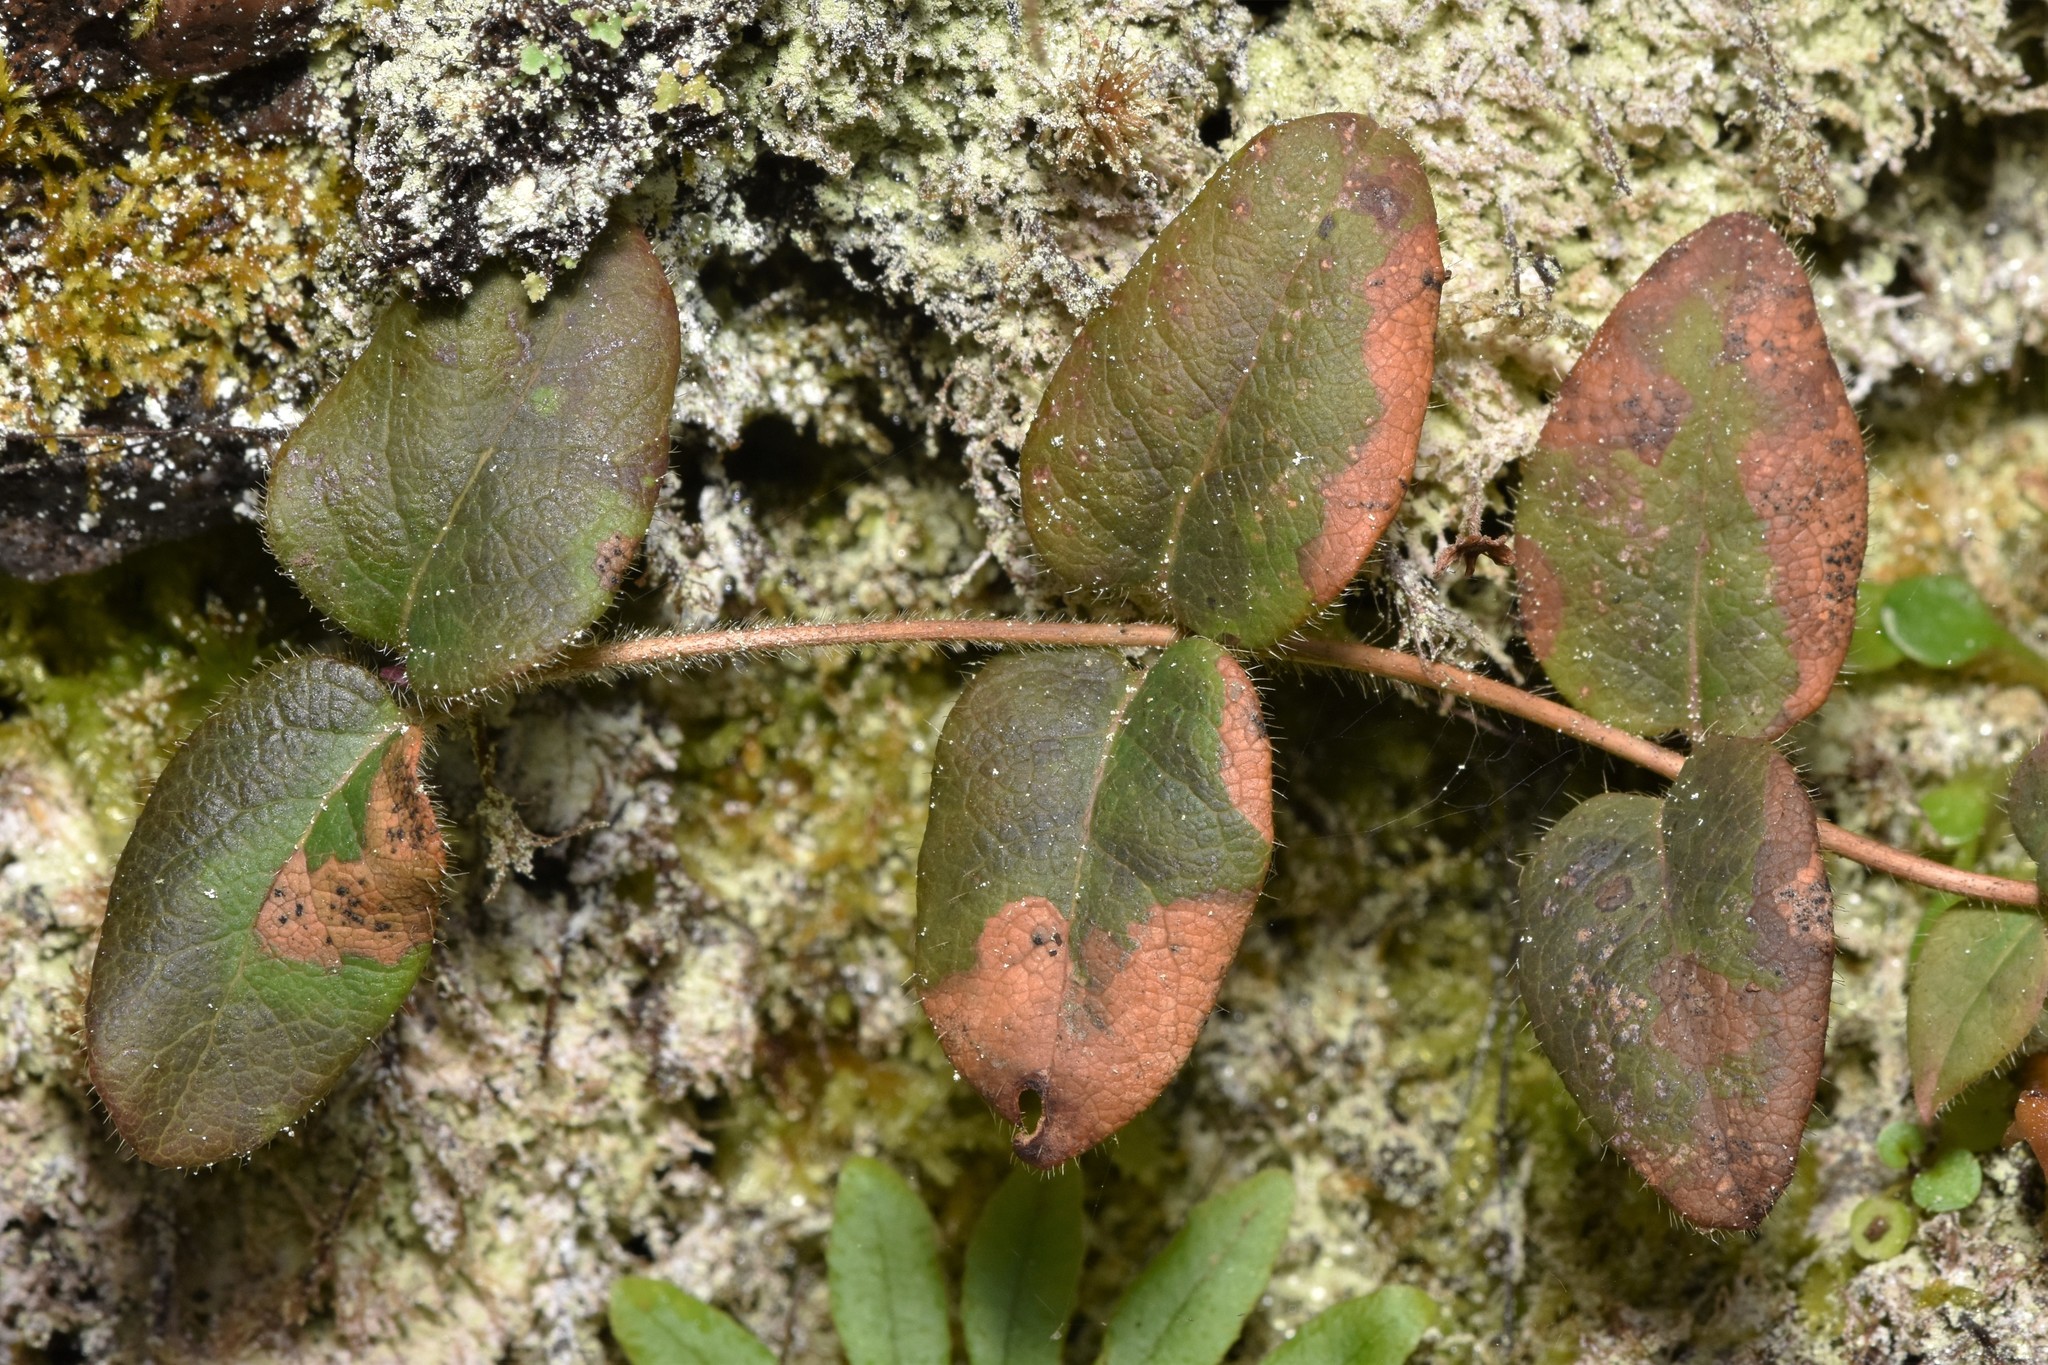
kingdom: Plantae
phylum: Tracheophyta
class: Magnoliopsida
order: Dipsacales
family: Caprifoliaceae
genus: Lonicera
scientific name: Lonicera hispidula
